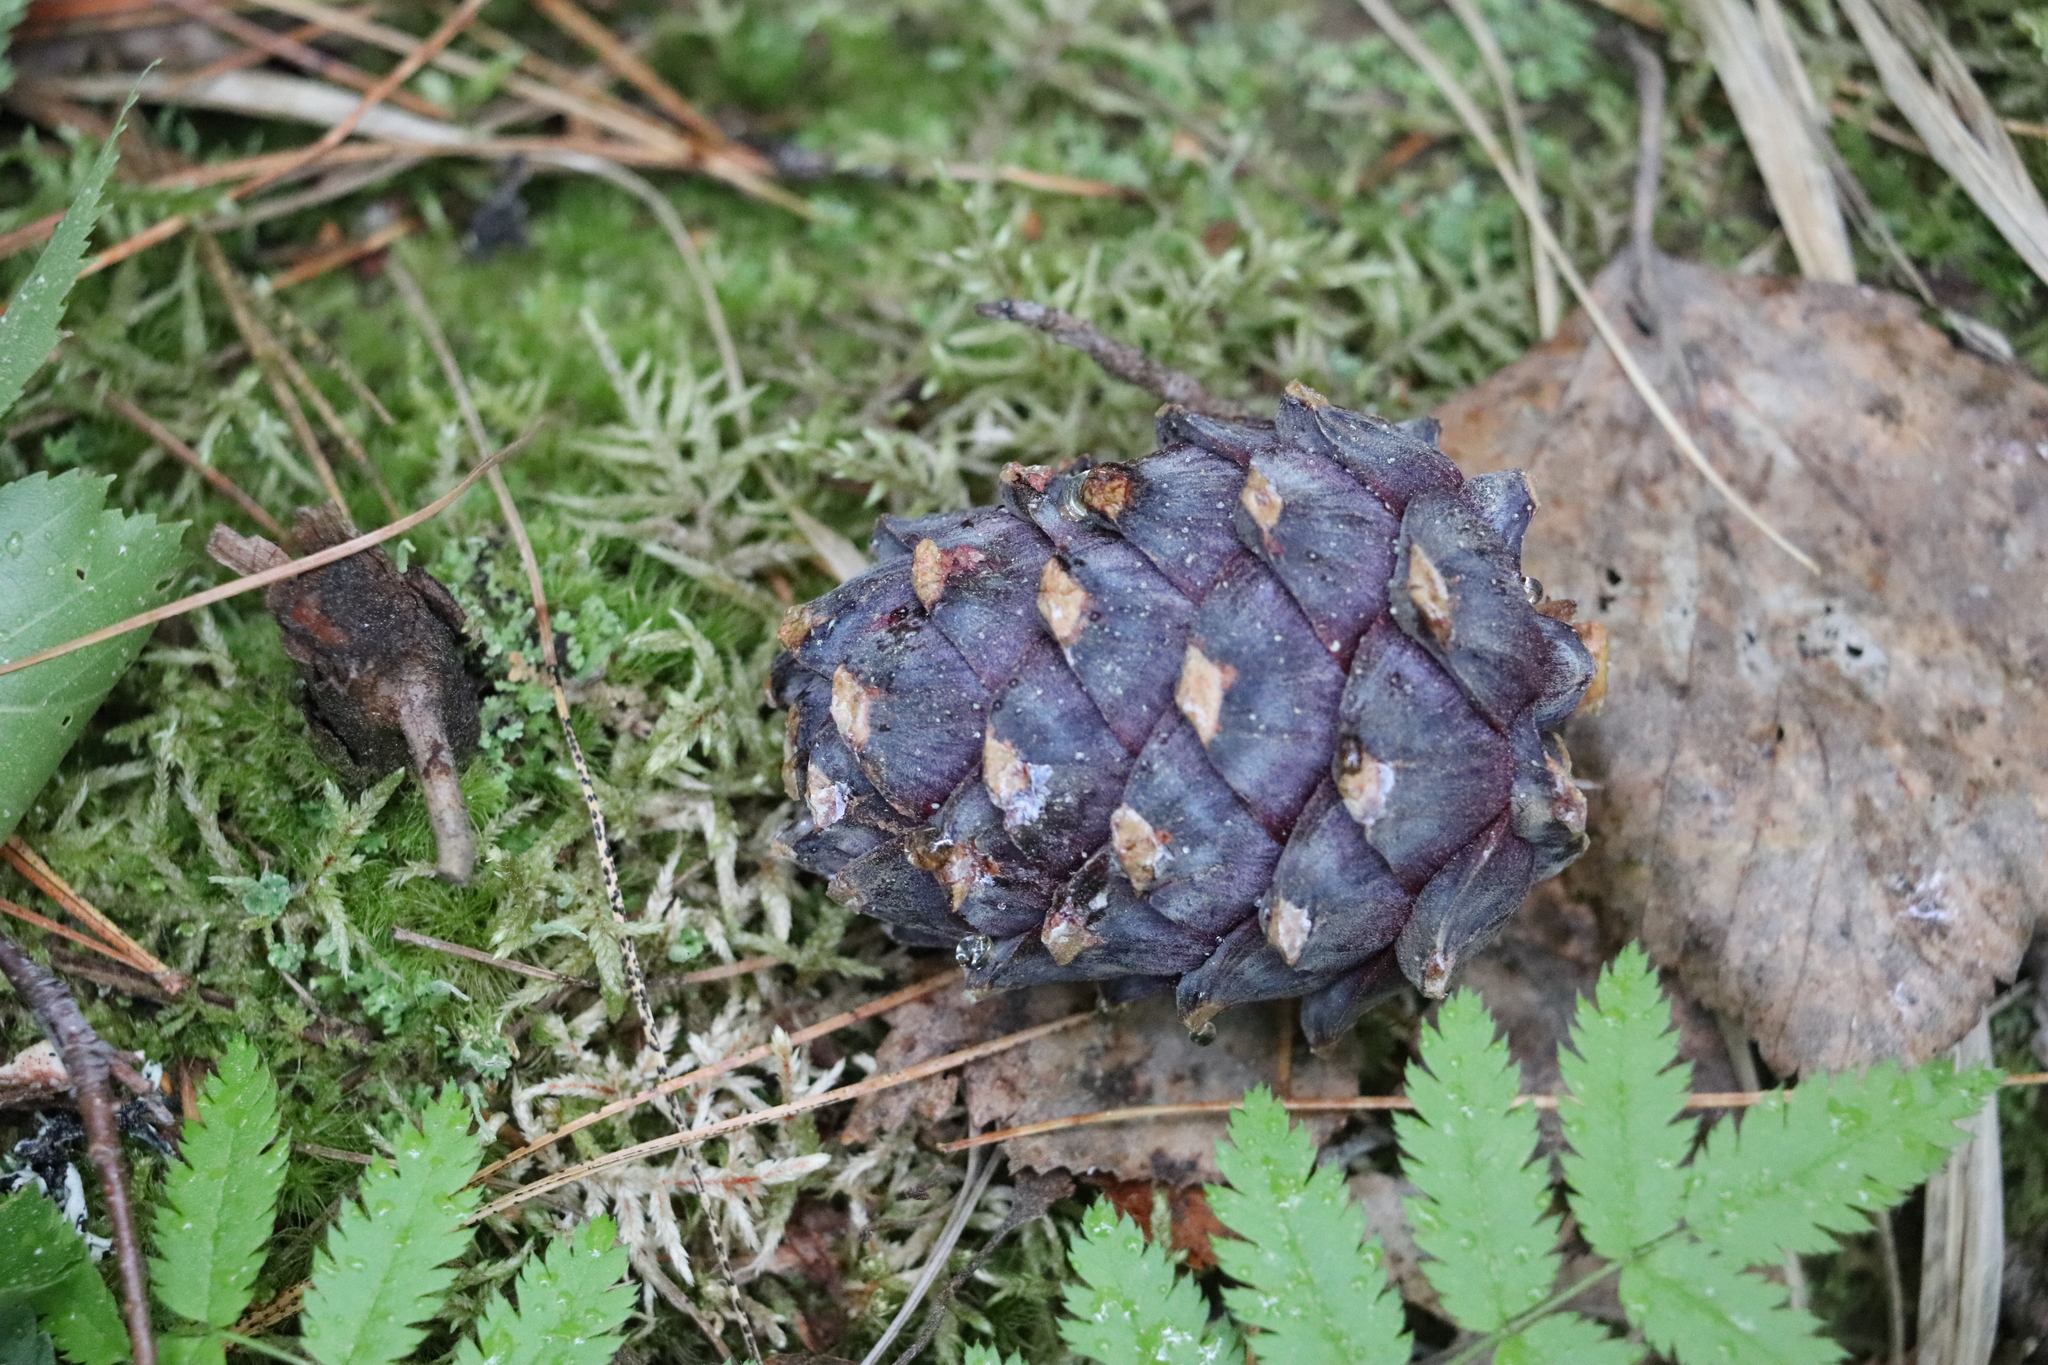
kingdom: Plantae
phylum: Tracheophyta
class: Pinopsida
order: Pinales
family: Pinaceae
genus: Pinus
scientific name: Pinus sibirica
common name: Siberian pine
